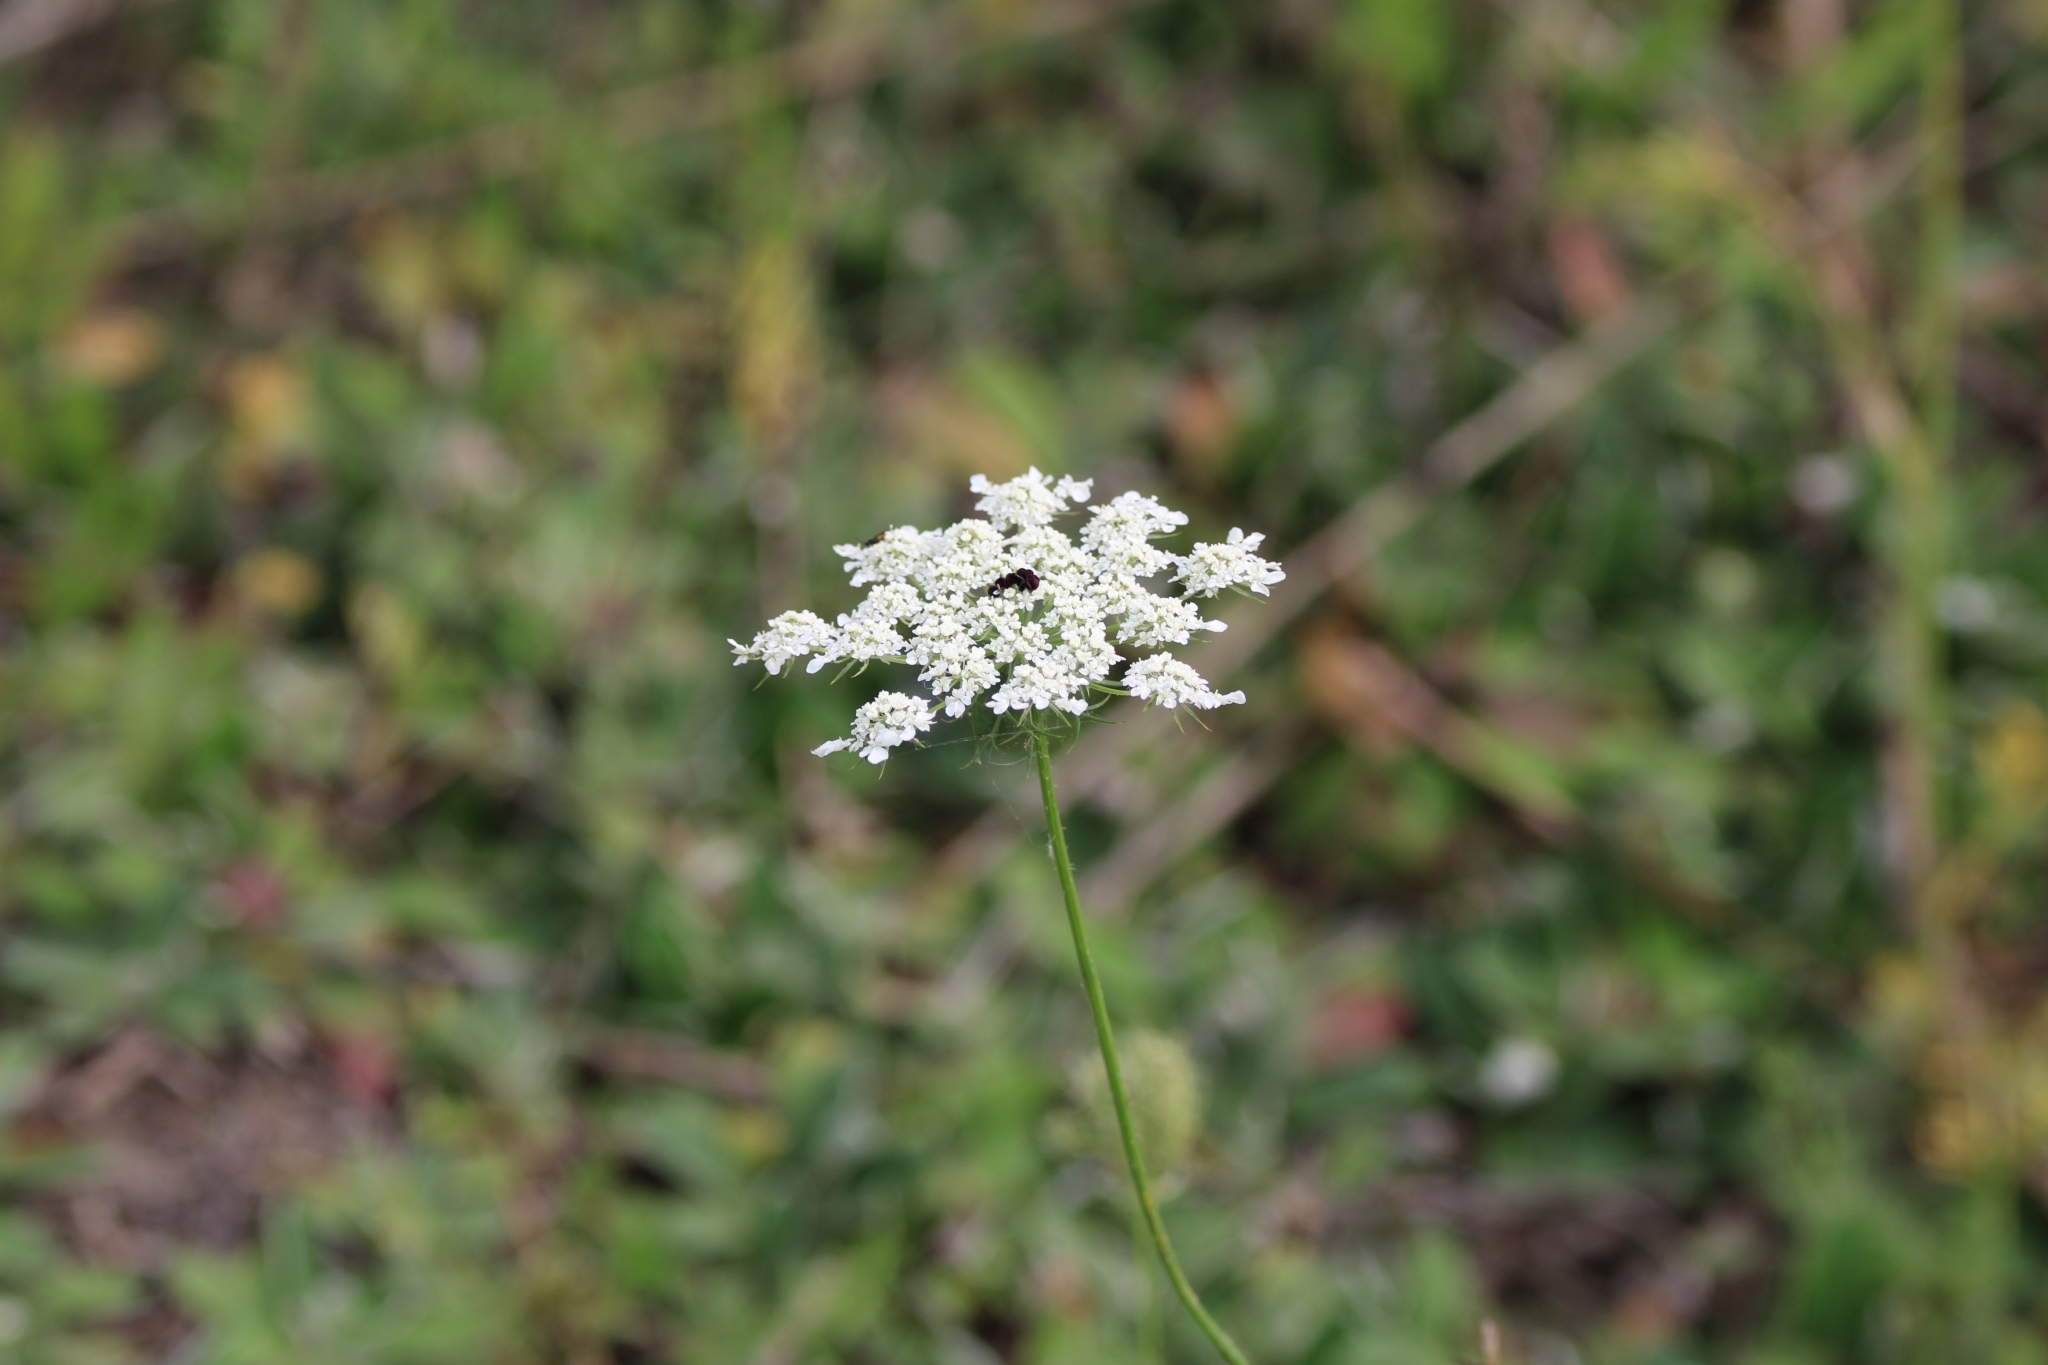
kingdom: Plantae
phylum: Tracheophyta
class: Magnoliopsida
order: Apiales
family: Apiaceae
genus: Daucus
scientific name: Daucus carota
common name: Wild carrot
